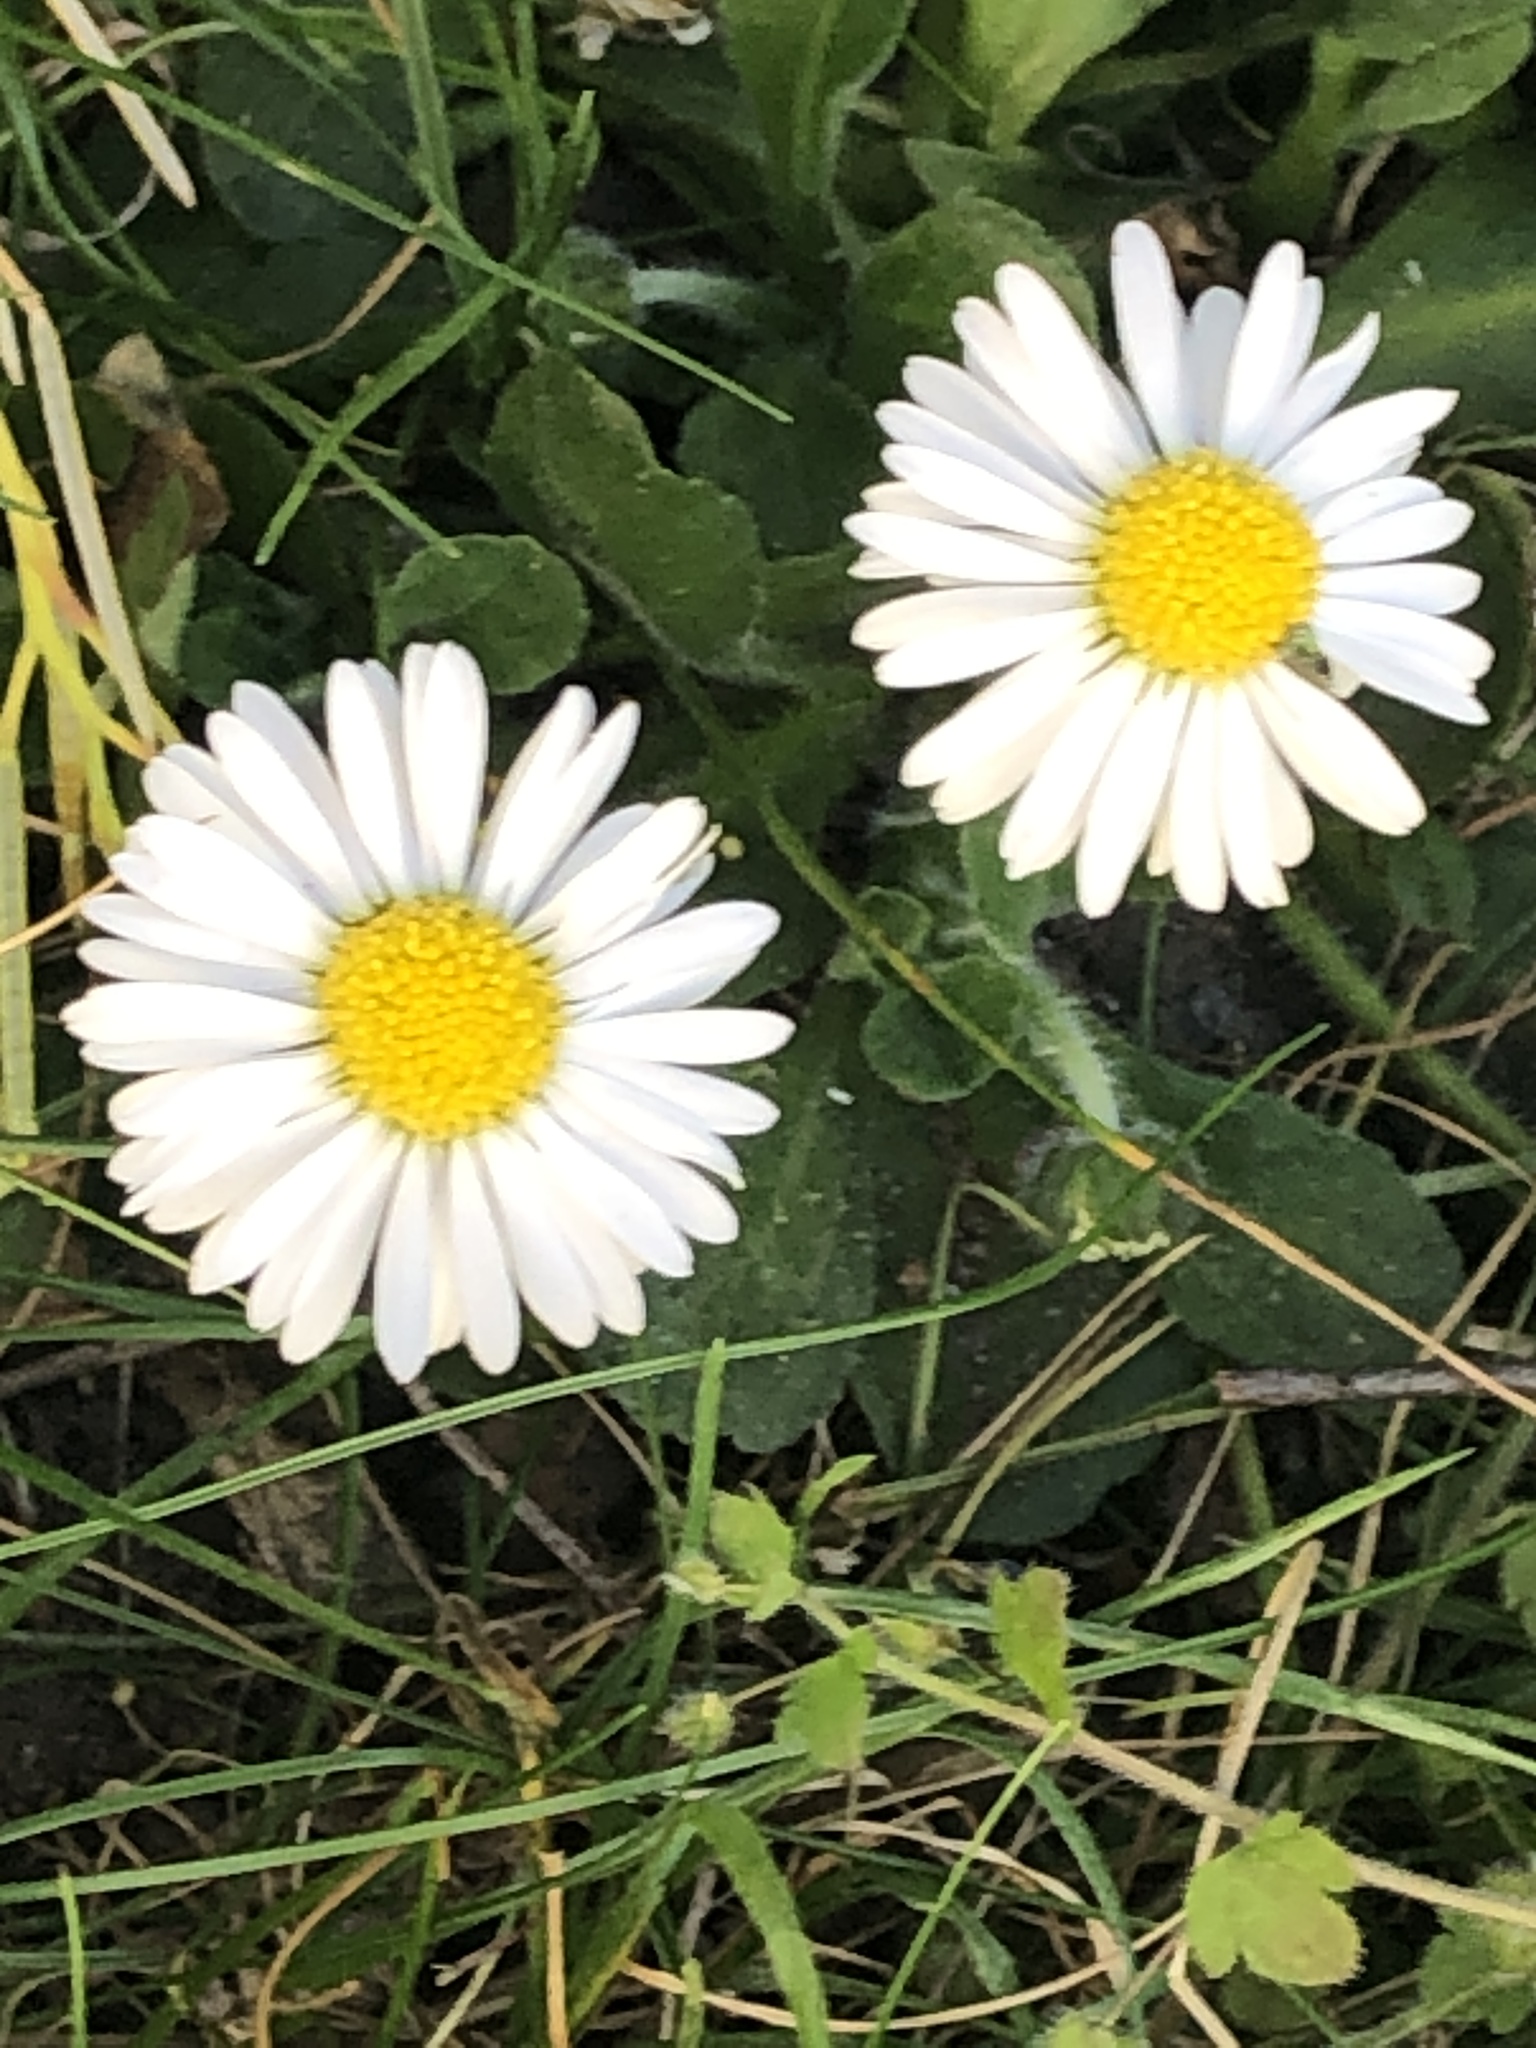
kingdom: Plantae
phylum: Tracheophyta
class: Magnoliopsida
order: Asterales
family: Asteraceae
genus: Bellis
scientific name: Bellis perennis
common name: Lawndaisy
